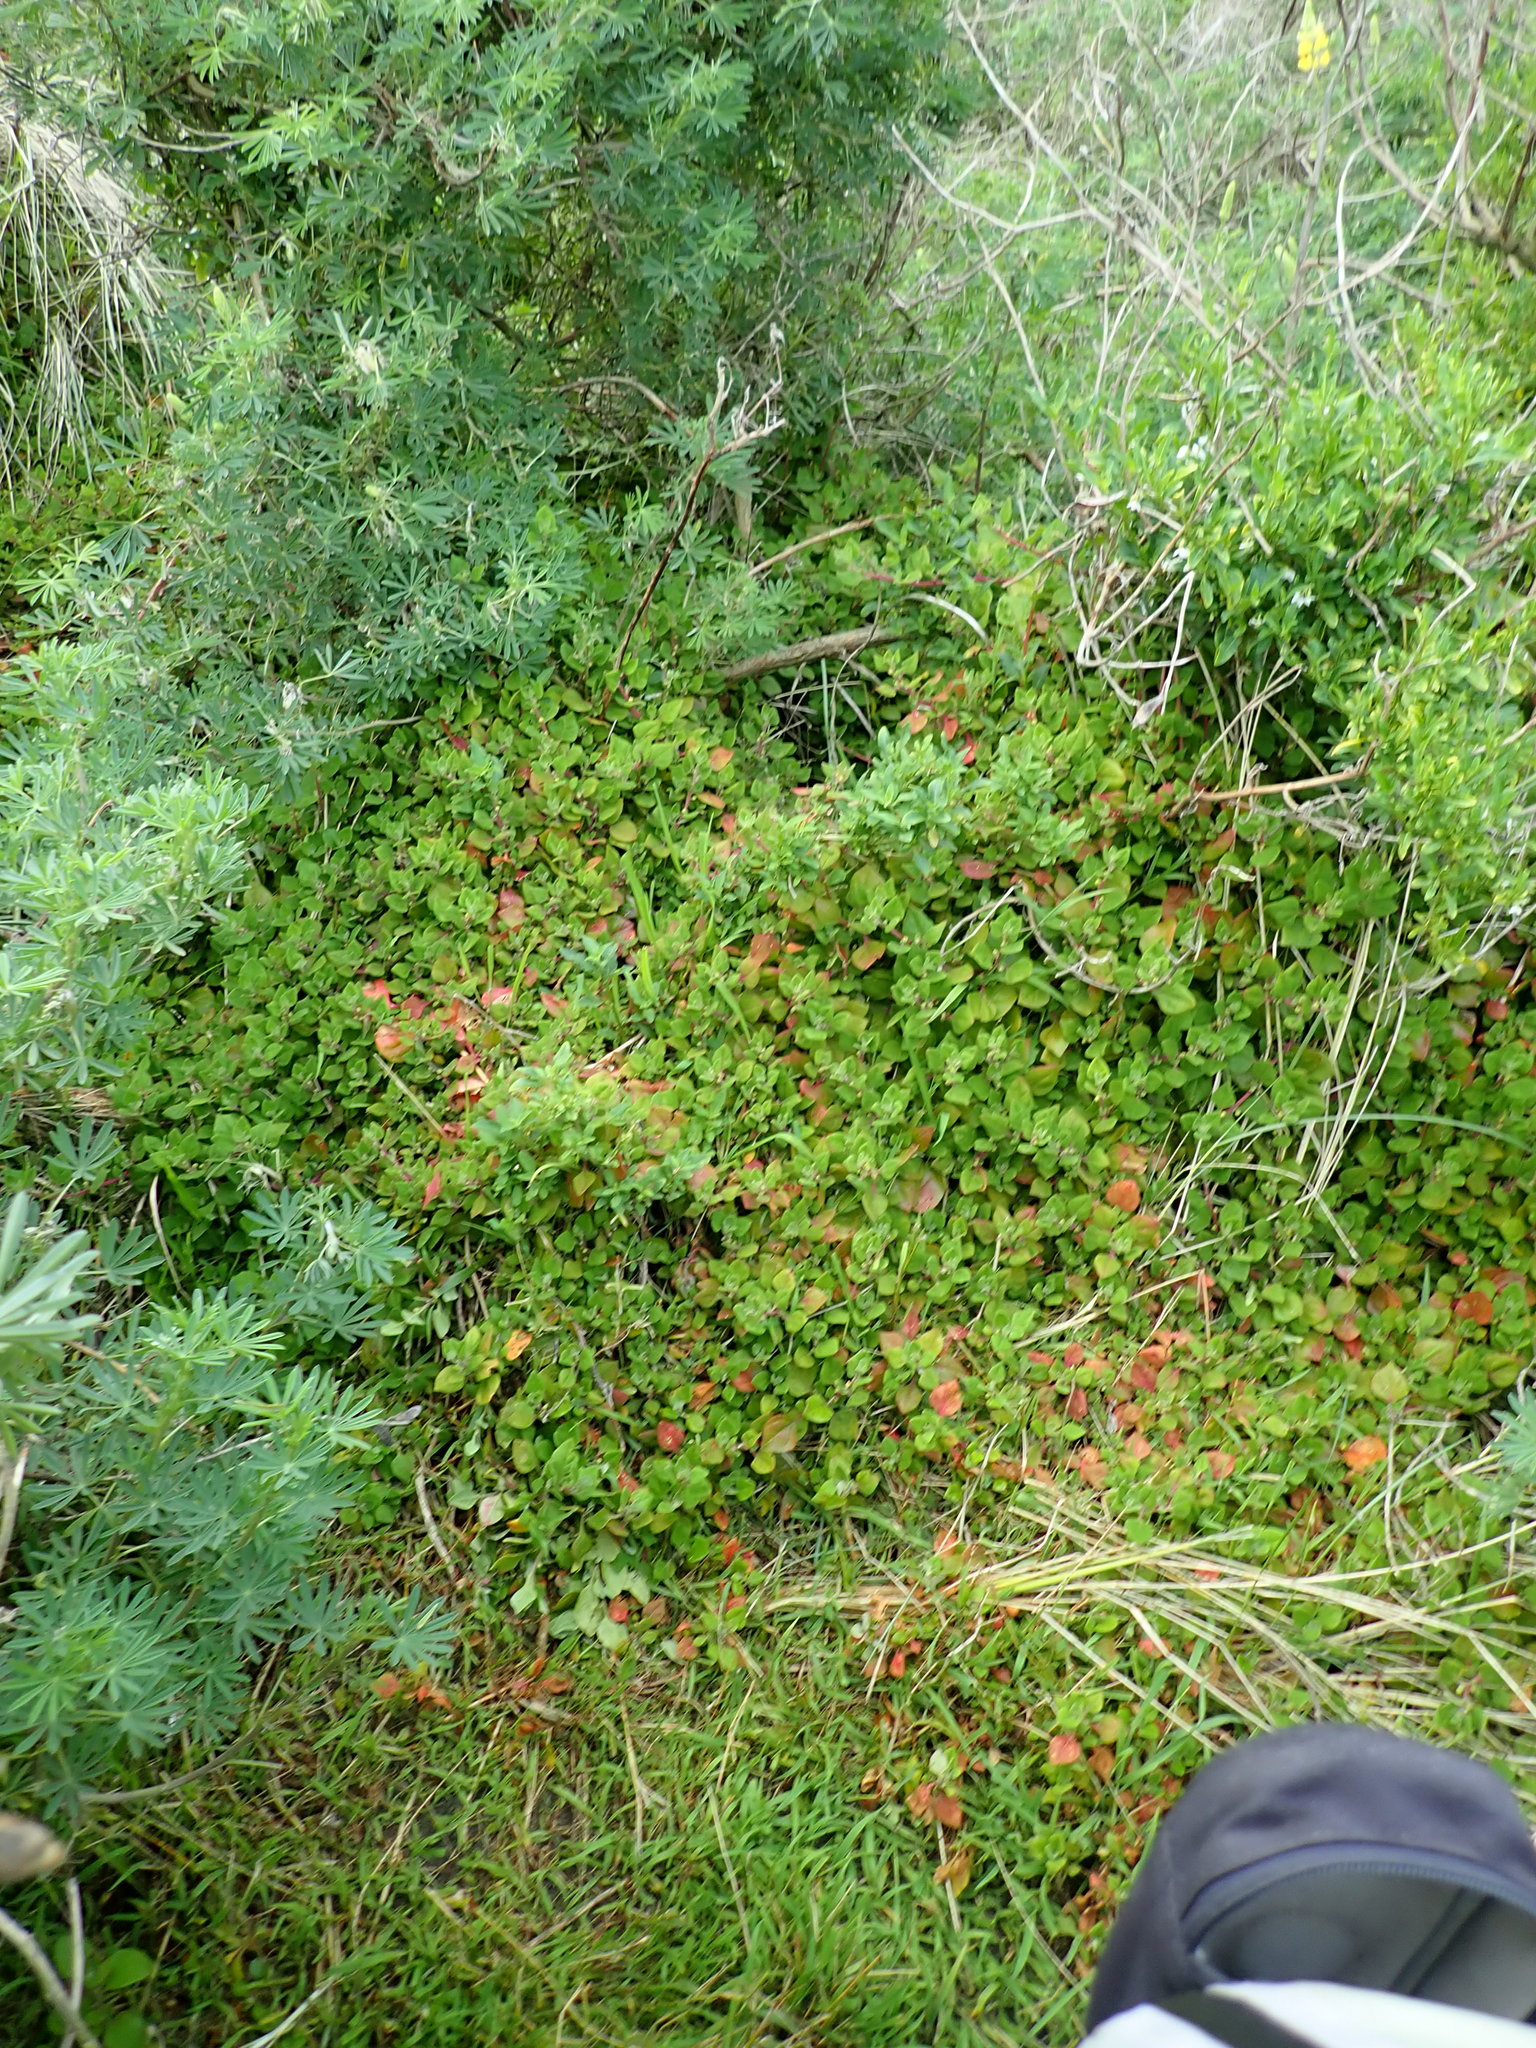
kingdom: Plantae
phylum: Tracheophyta
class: Magnoliopsida
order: Caryophyllales
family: Aizoaceae
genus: Tetragonia
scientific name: Tetragonia implexicoma
